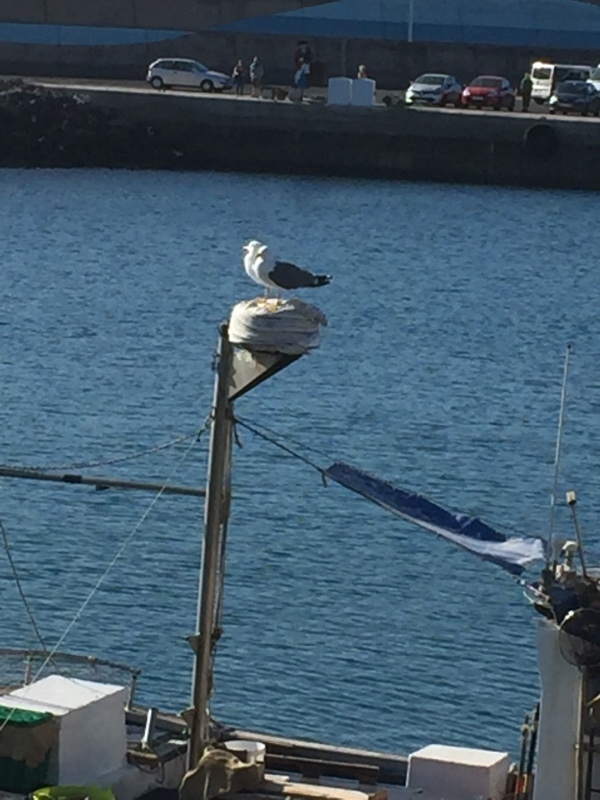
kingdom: Animalia
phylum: Chordata
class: Aves
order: Charadriiformes
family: Laridae
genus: Larus
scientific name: Larus michahellis
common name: Yellow-legged gull
